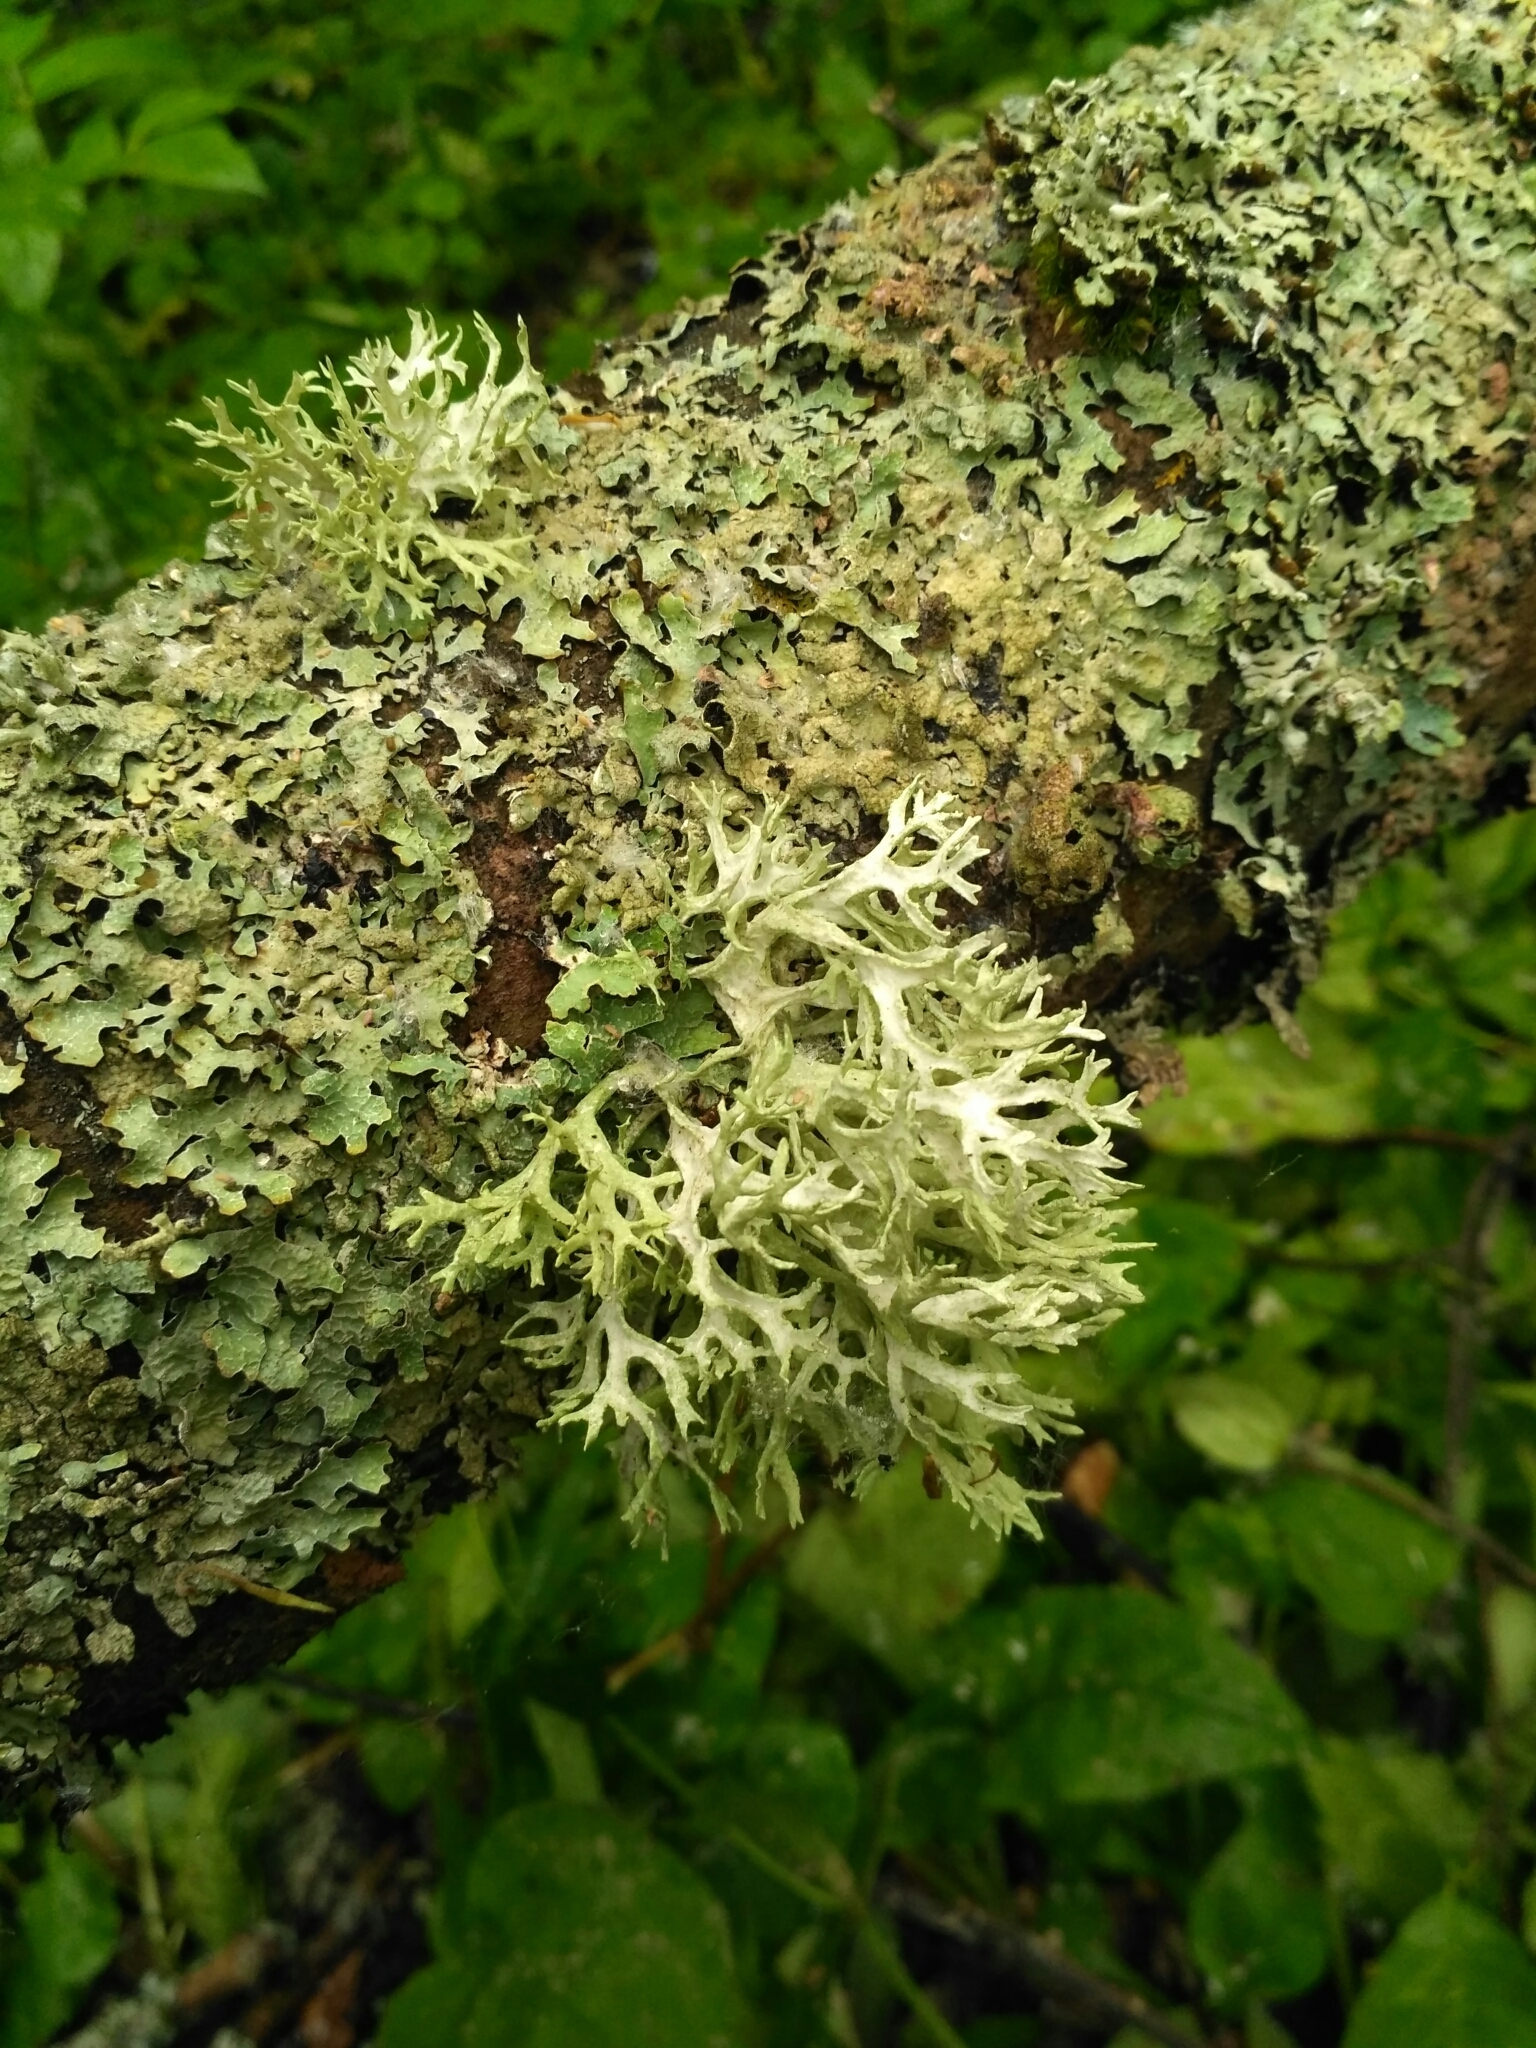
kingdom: Fungi
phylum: Ascomycota
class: Lecanoromycetes
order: Lecanorales
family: Parmeliaceae
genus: Evernia
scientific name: Evernia prunastri
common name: Oak moss
